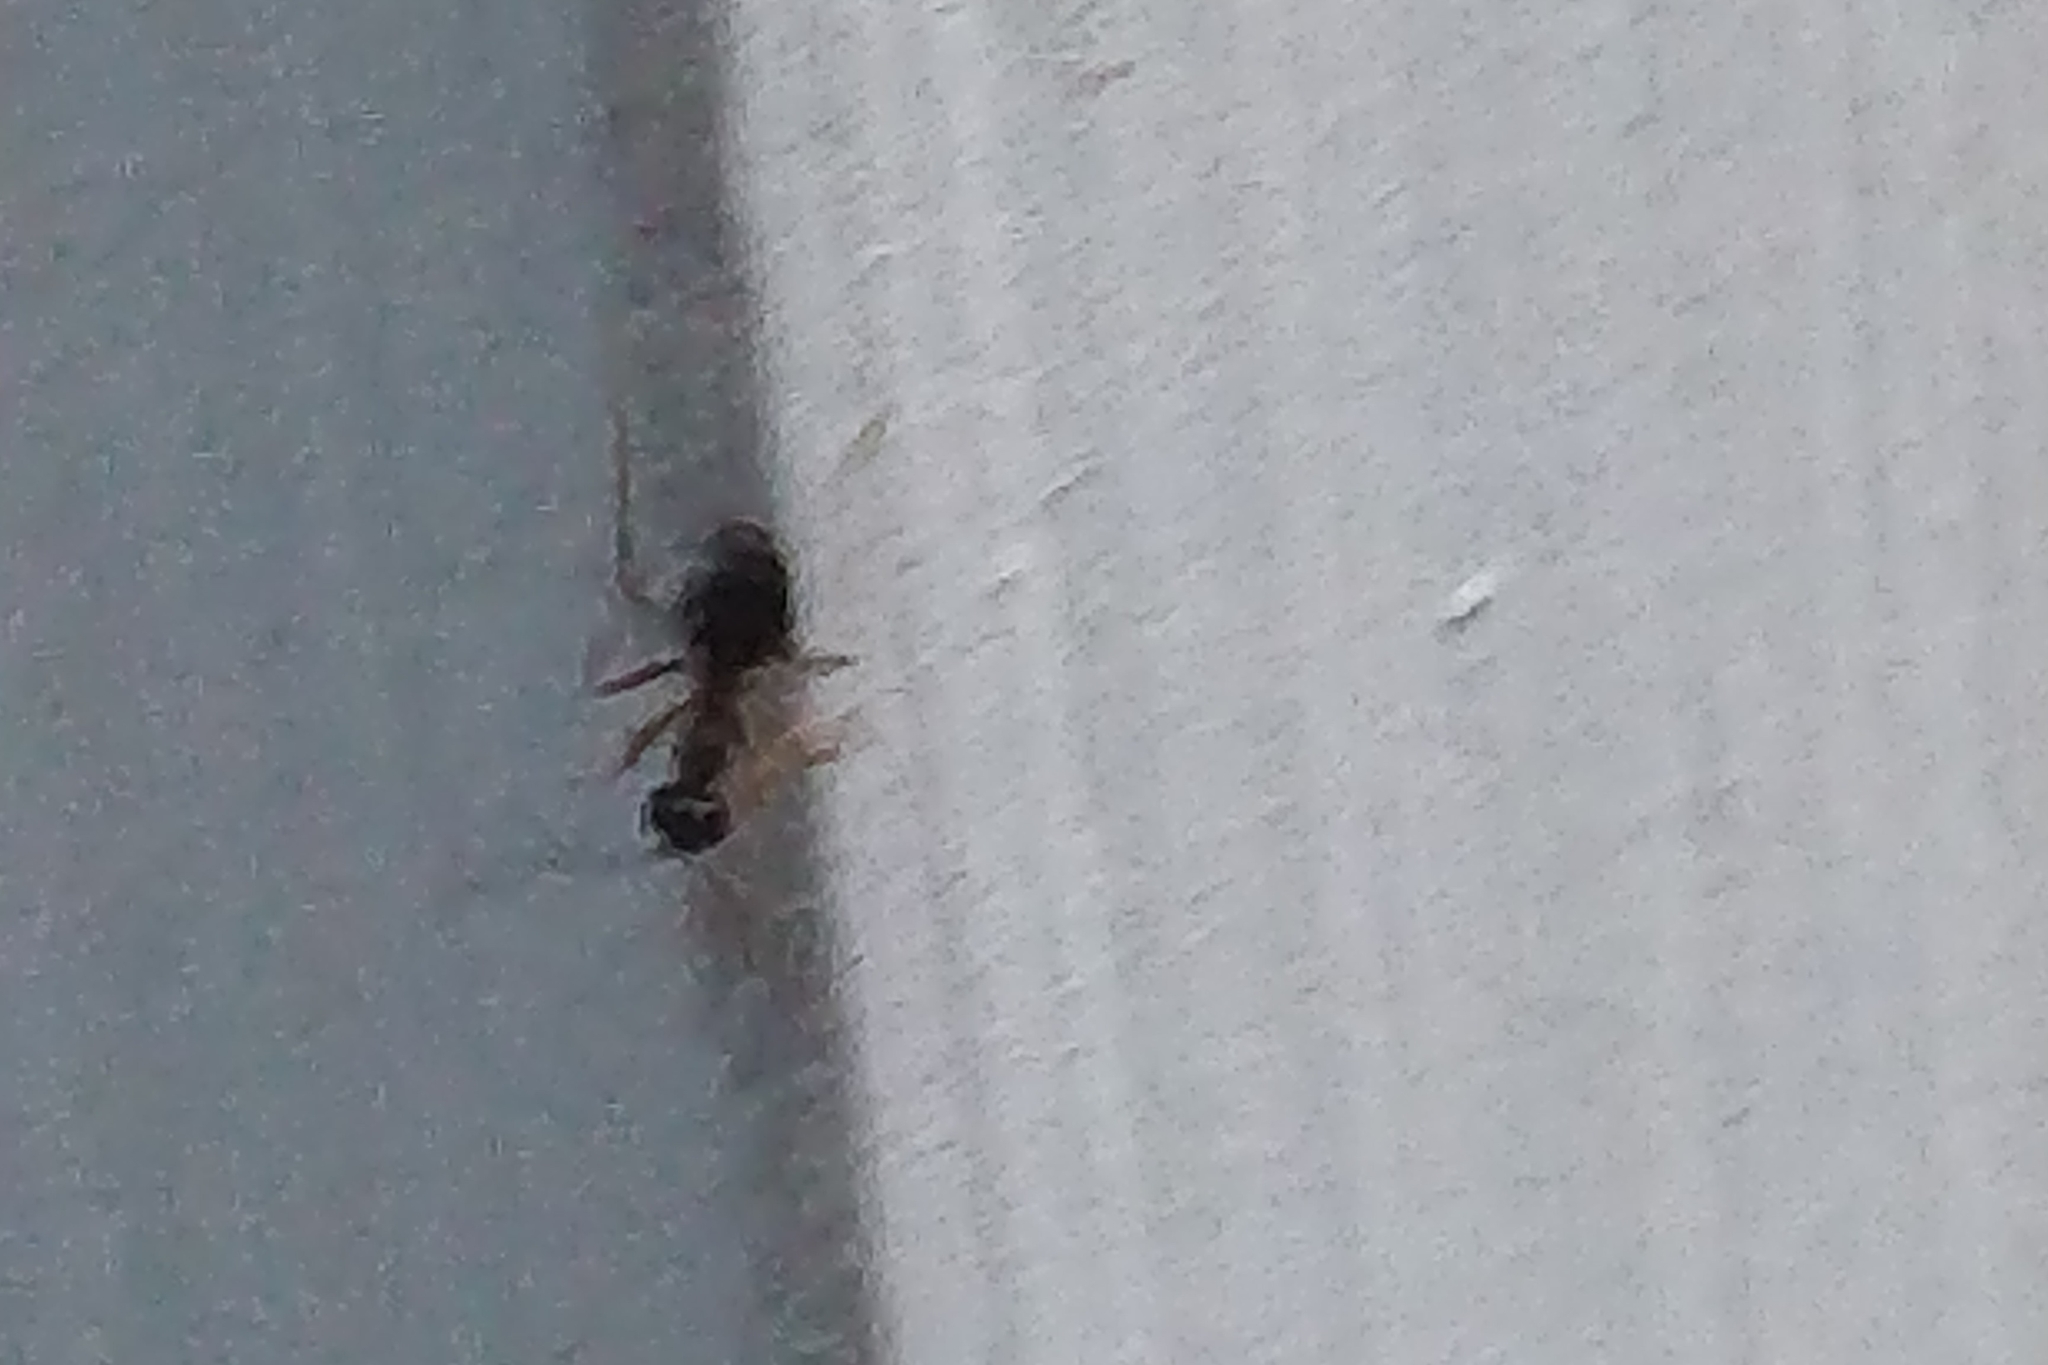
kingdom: Animalia
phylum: Arthropoda
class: Insecta
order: Hymenoptera
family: Formicidae
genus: Prenolepis
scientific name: Prenolepis imparis
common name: Small honey ant
